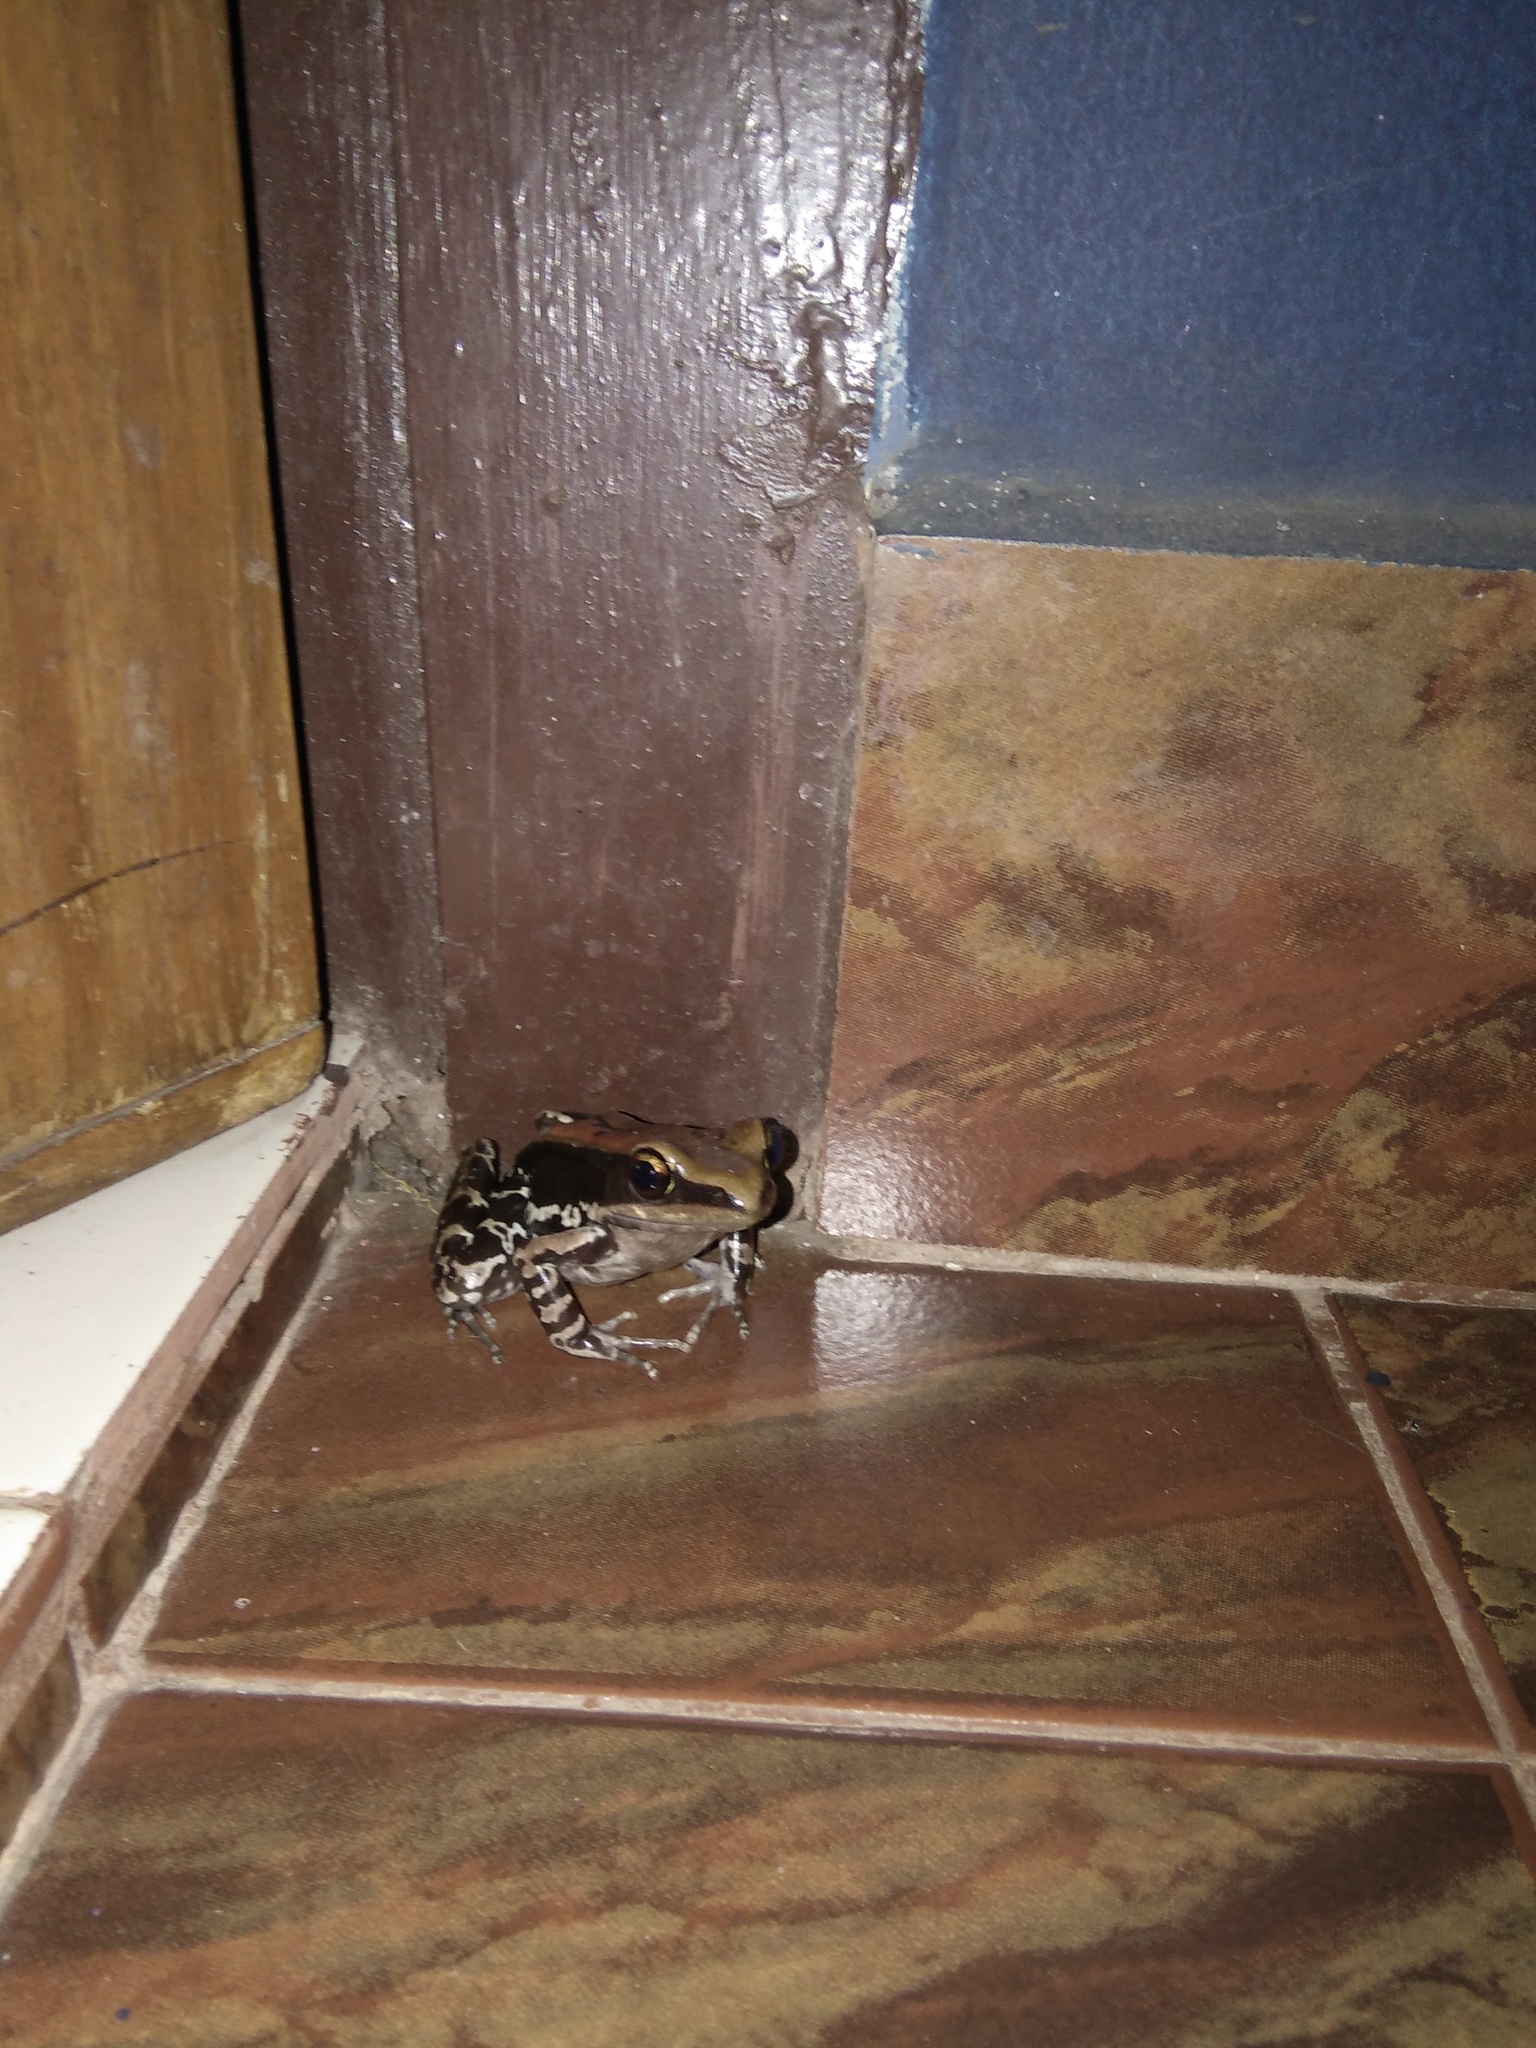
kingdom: Animalia
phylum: Chordata
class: Amphibia
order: Anura
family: Ranidae
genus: Hydrophylax
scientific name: Hydrophylax bahuvistara
